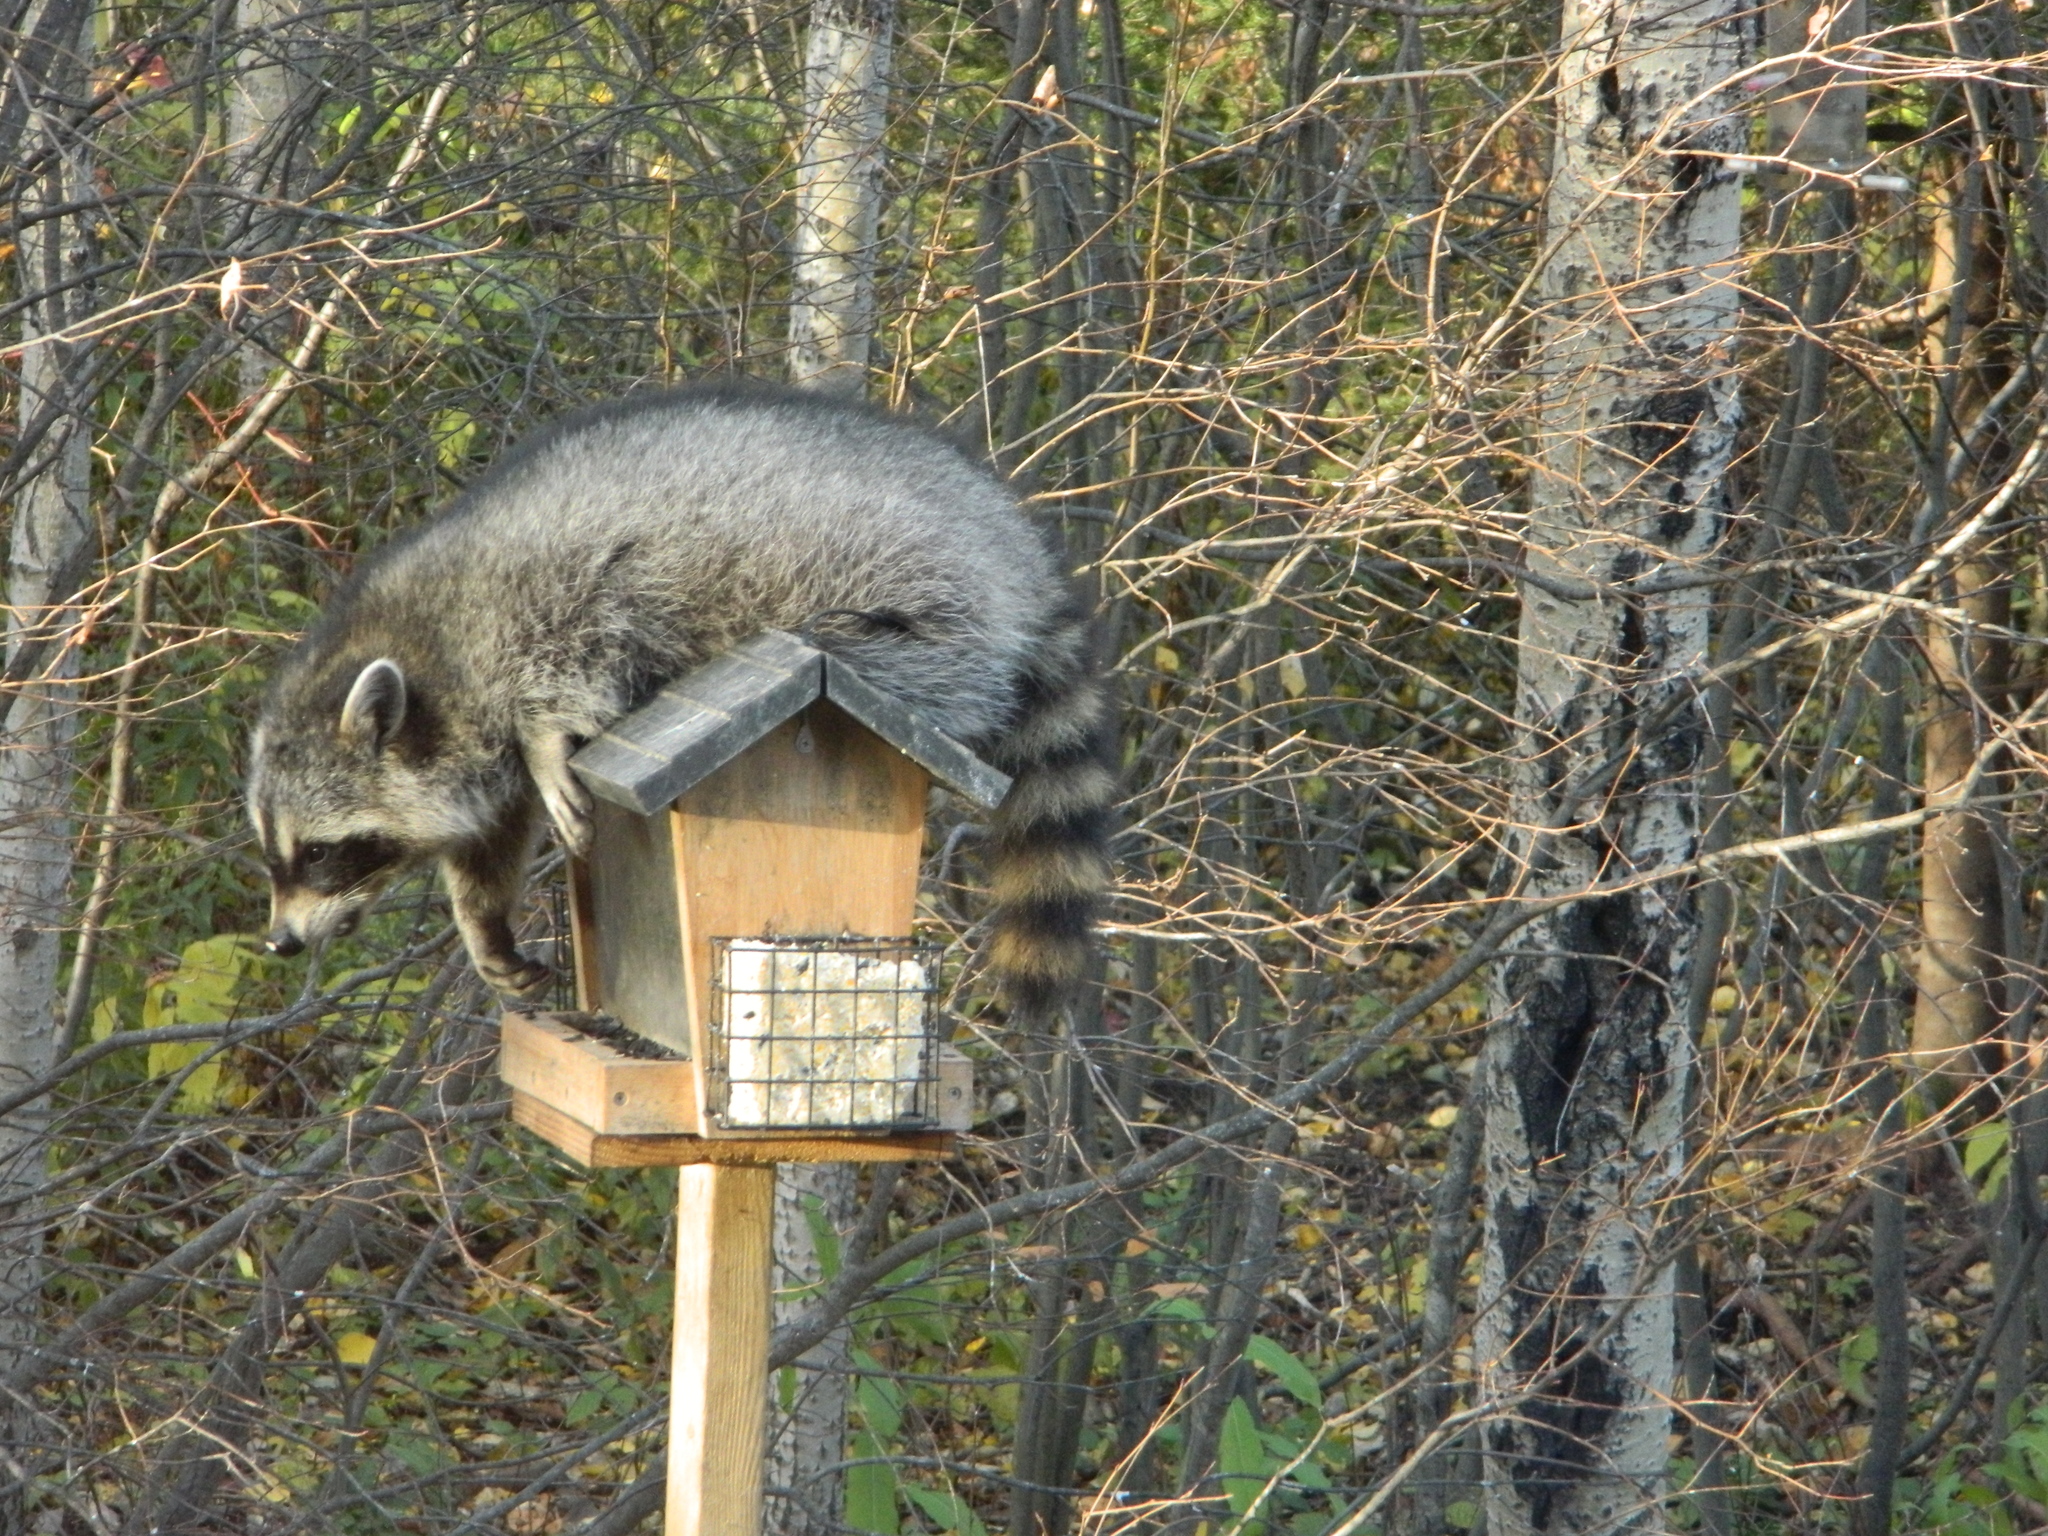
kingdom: Animalia
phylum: Chordata
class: Mammalia
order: Carnivora
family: Procyonidae
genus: Procyon
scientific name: Procyon lotor
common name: Raccoon
